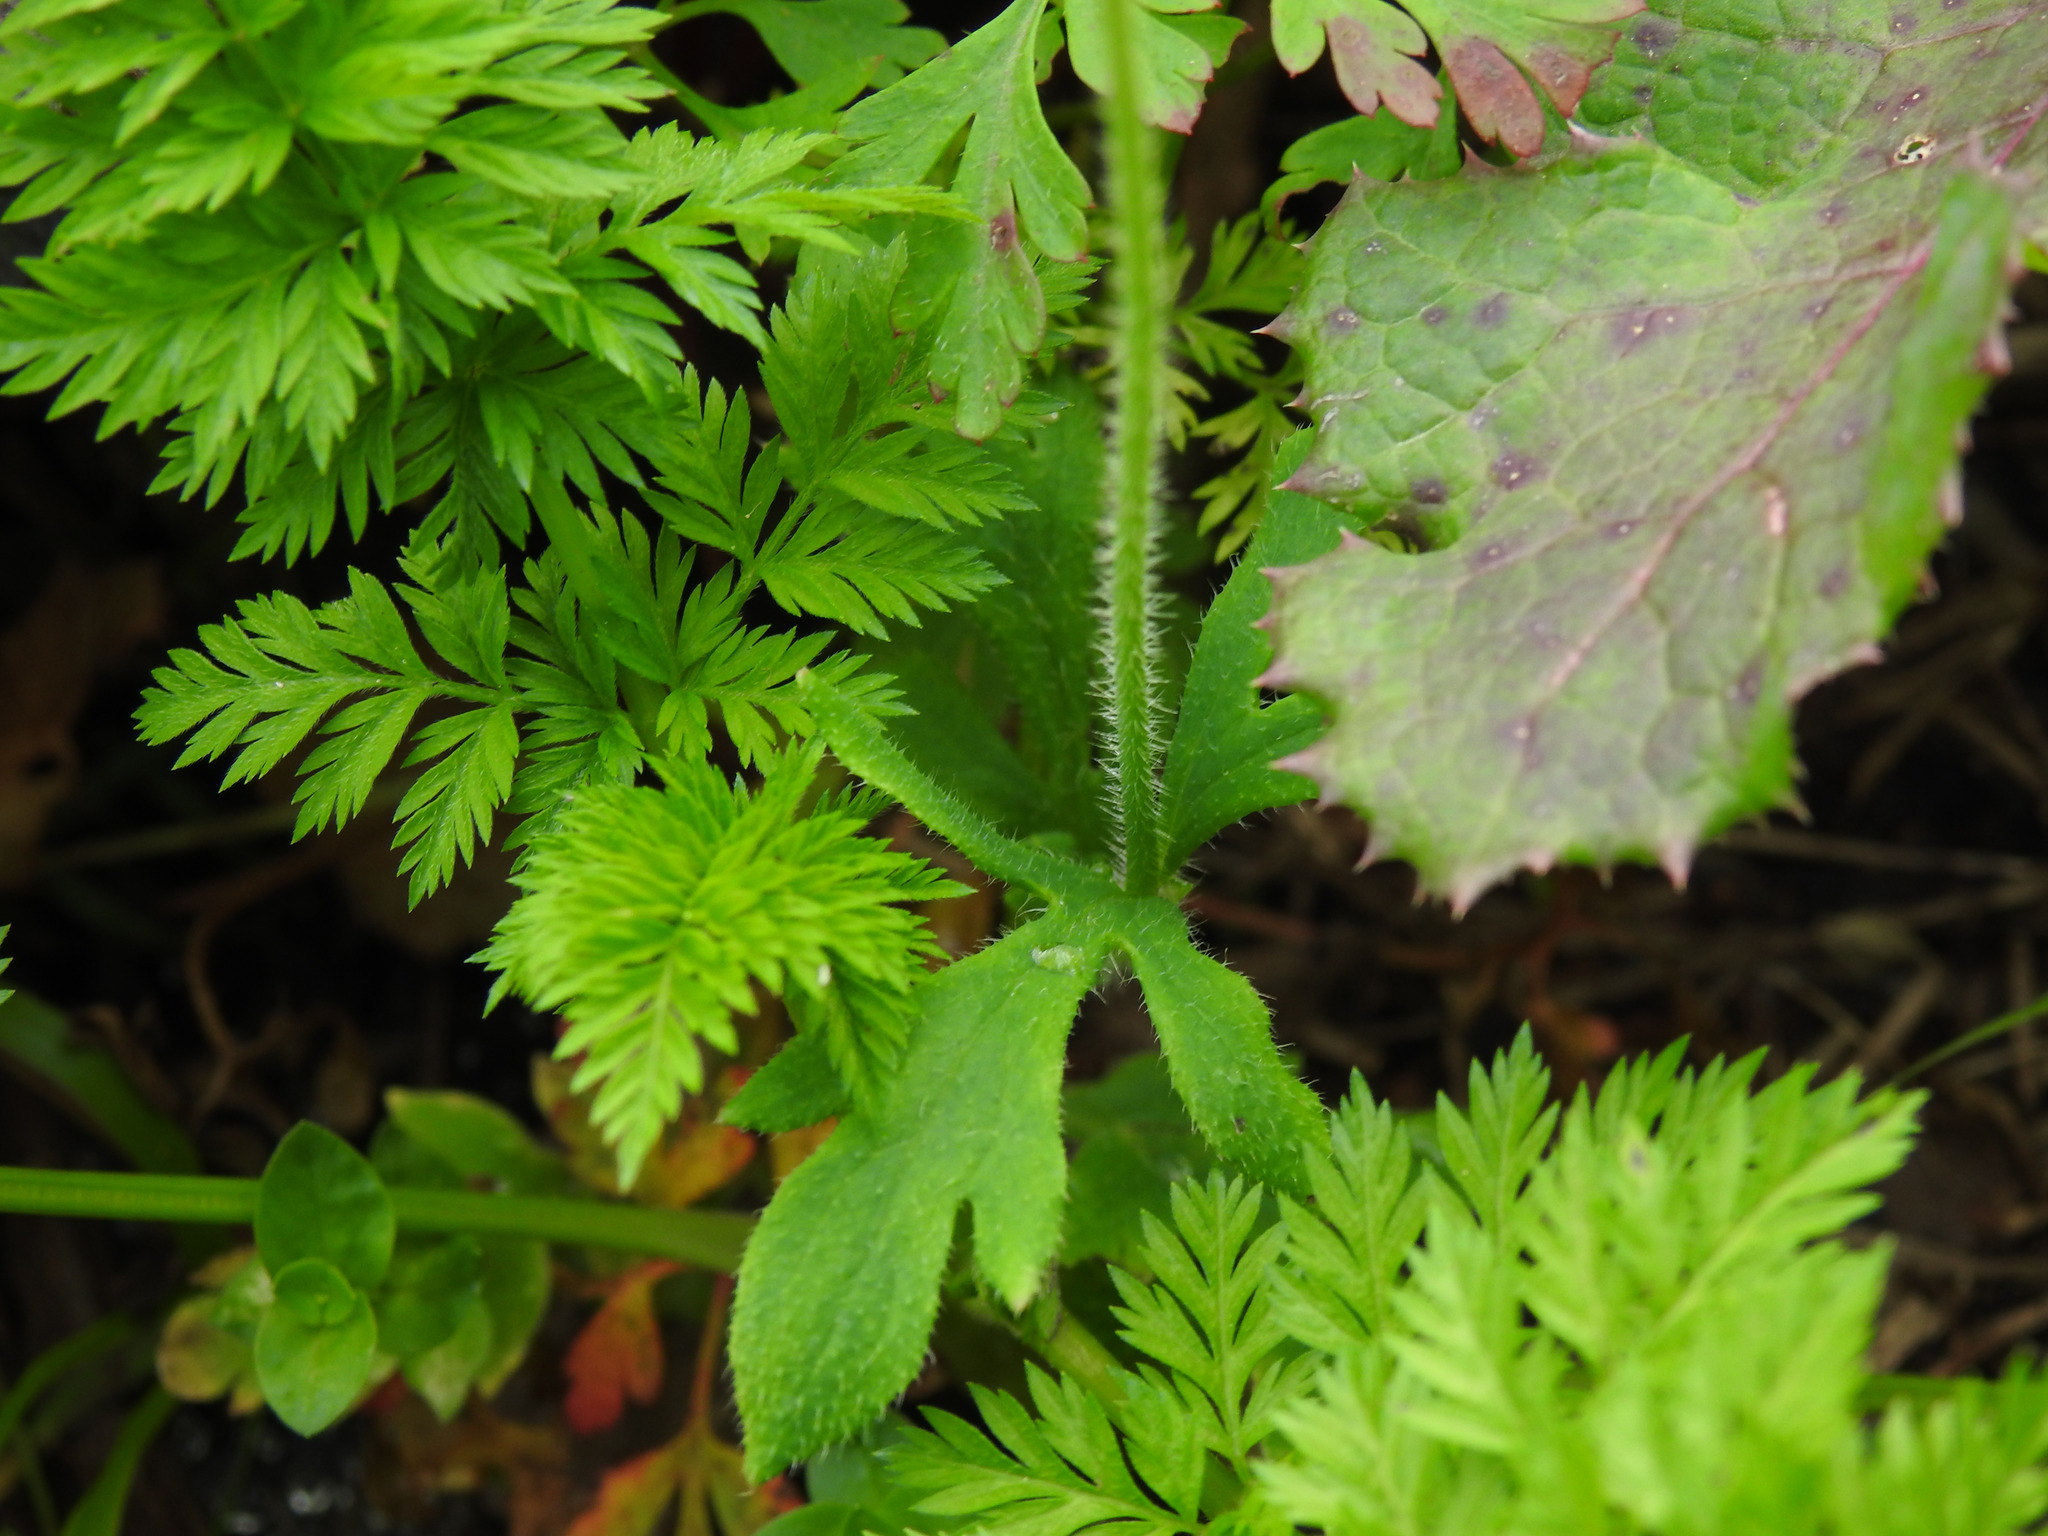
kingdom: Plantae
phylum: Tracheophyta
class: Magnoliopsida
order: Ranunculales
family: Papaveraceae
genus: Papaver
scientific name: Papaver dubium
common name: Long-headed poppy
